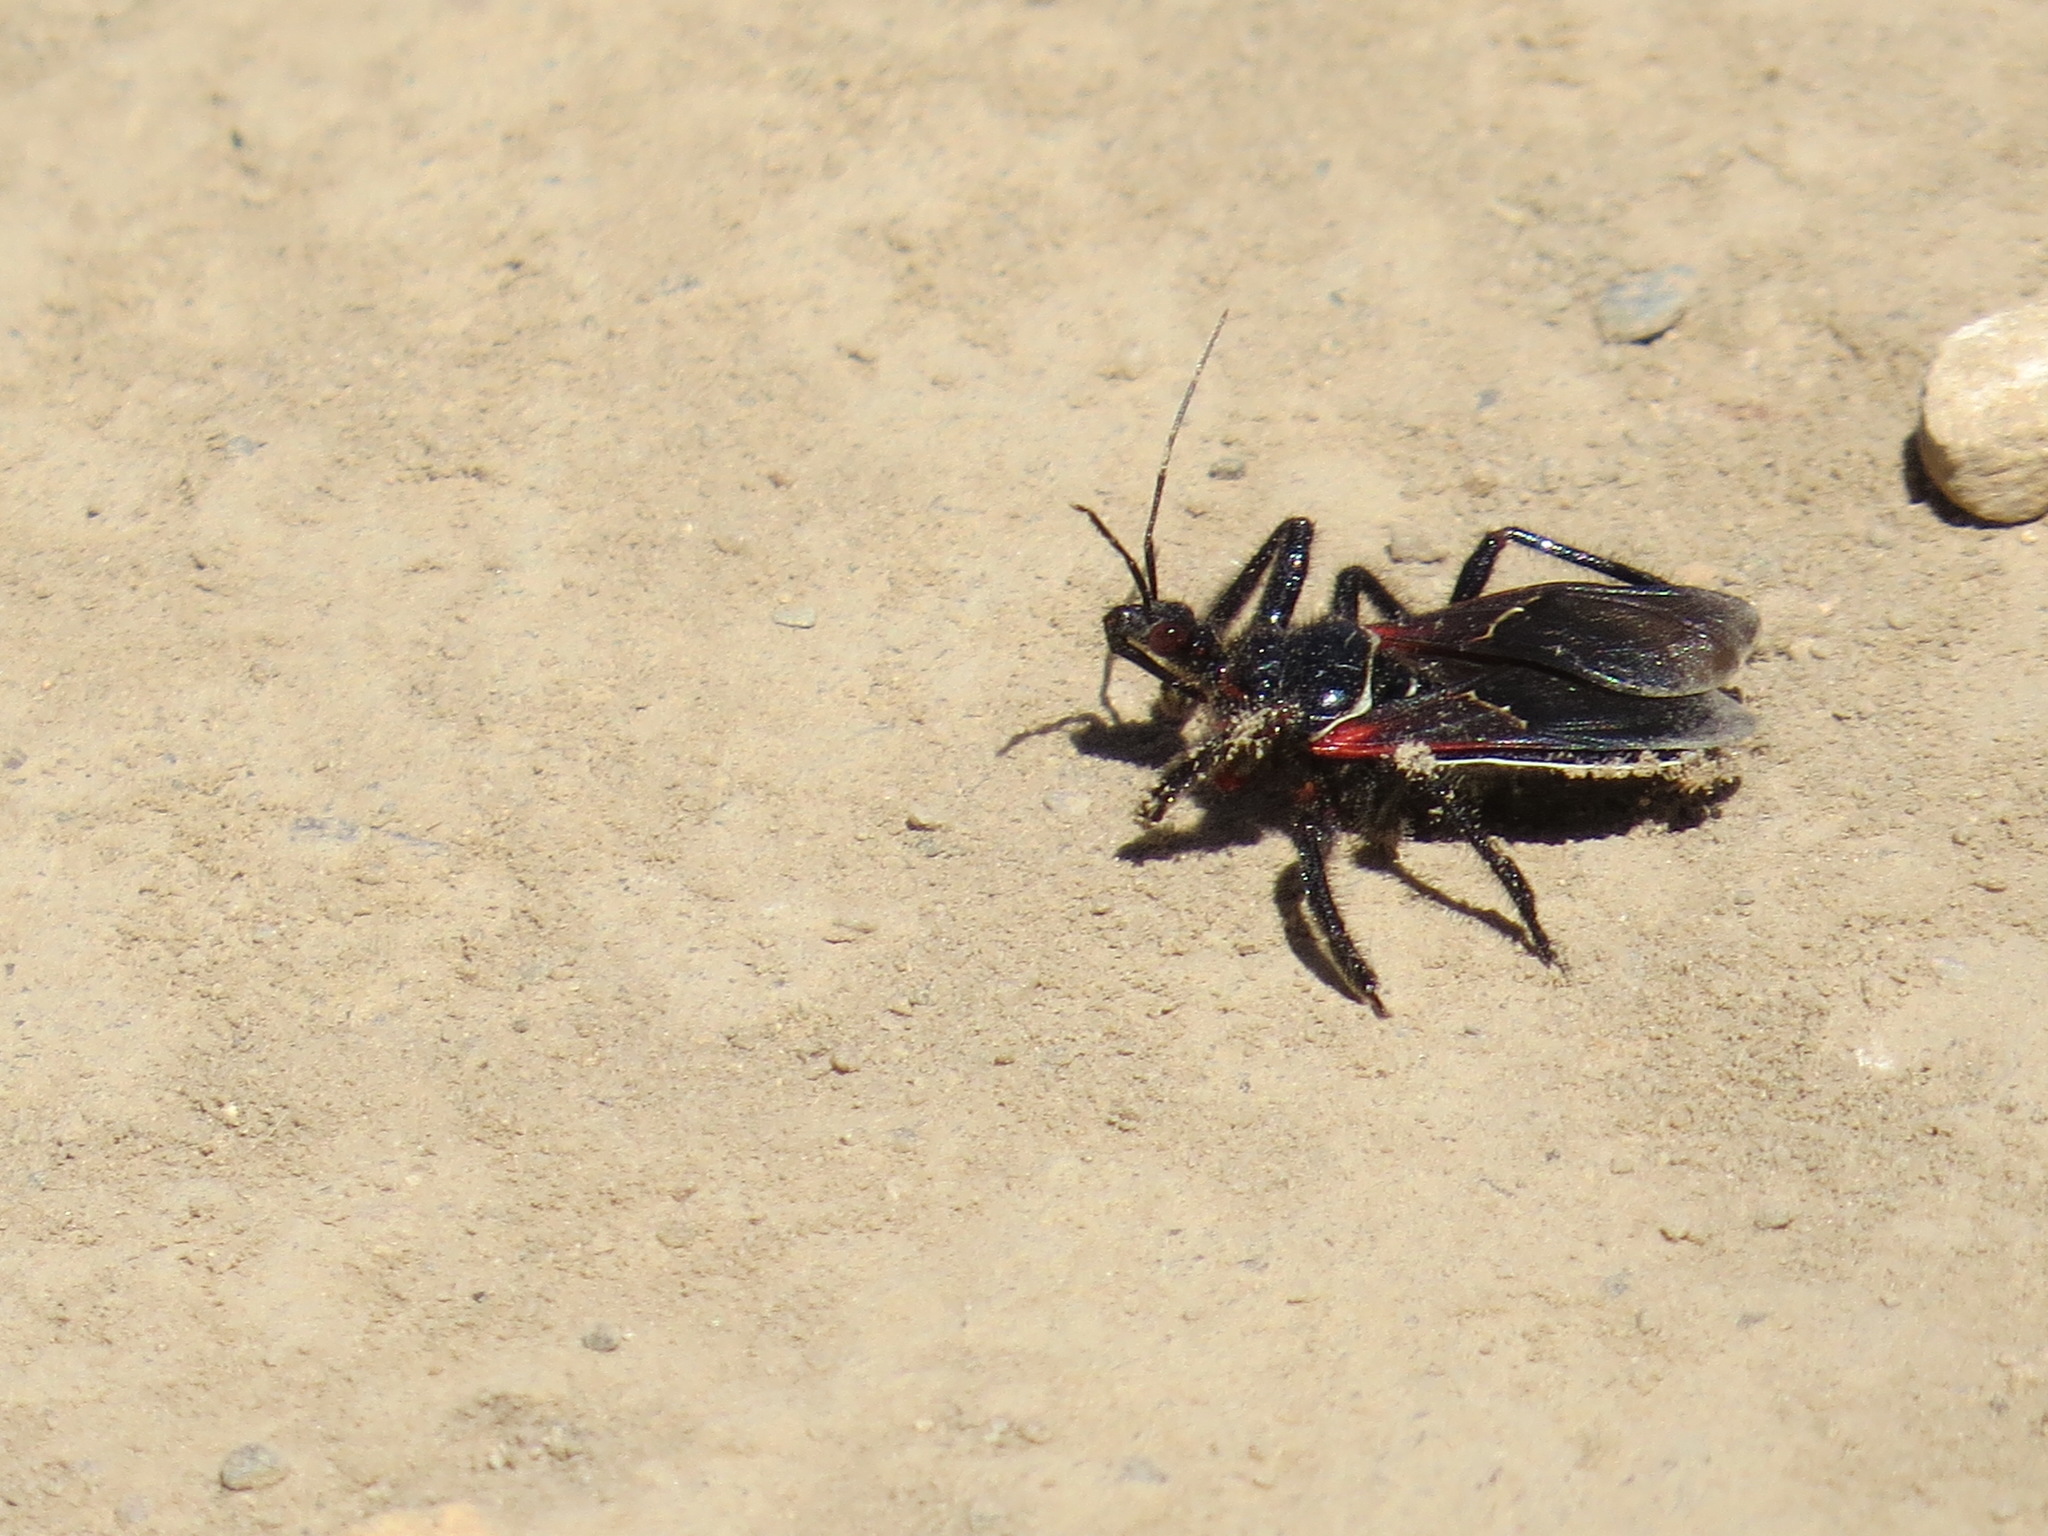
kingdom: Animalia
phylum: Arthropoda
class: Insecta
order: Hemiptera
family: Reduviidae
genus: Apiomerus
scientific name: Apiomerus californicus
